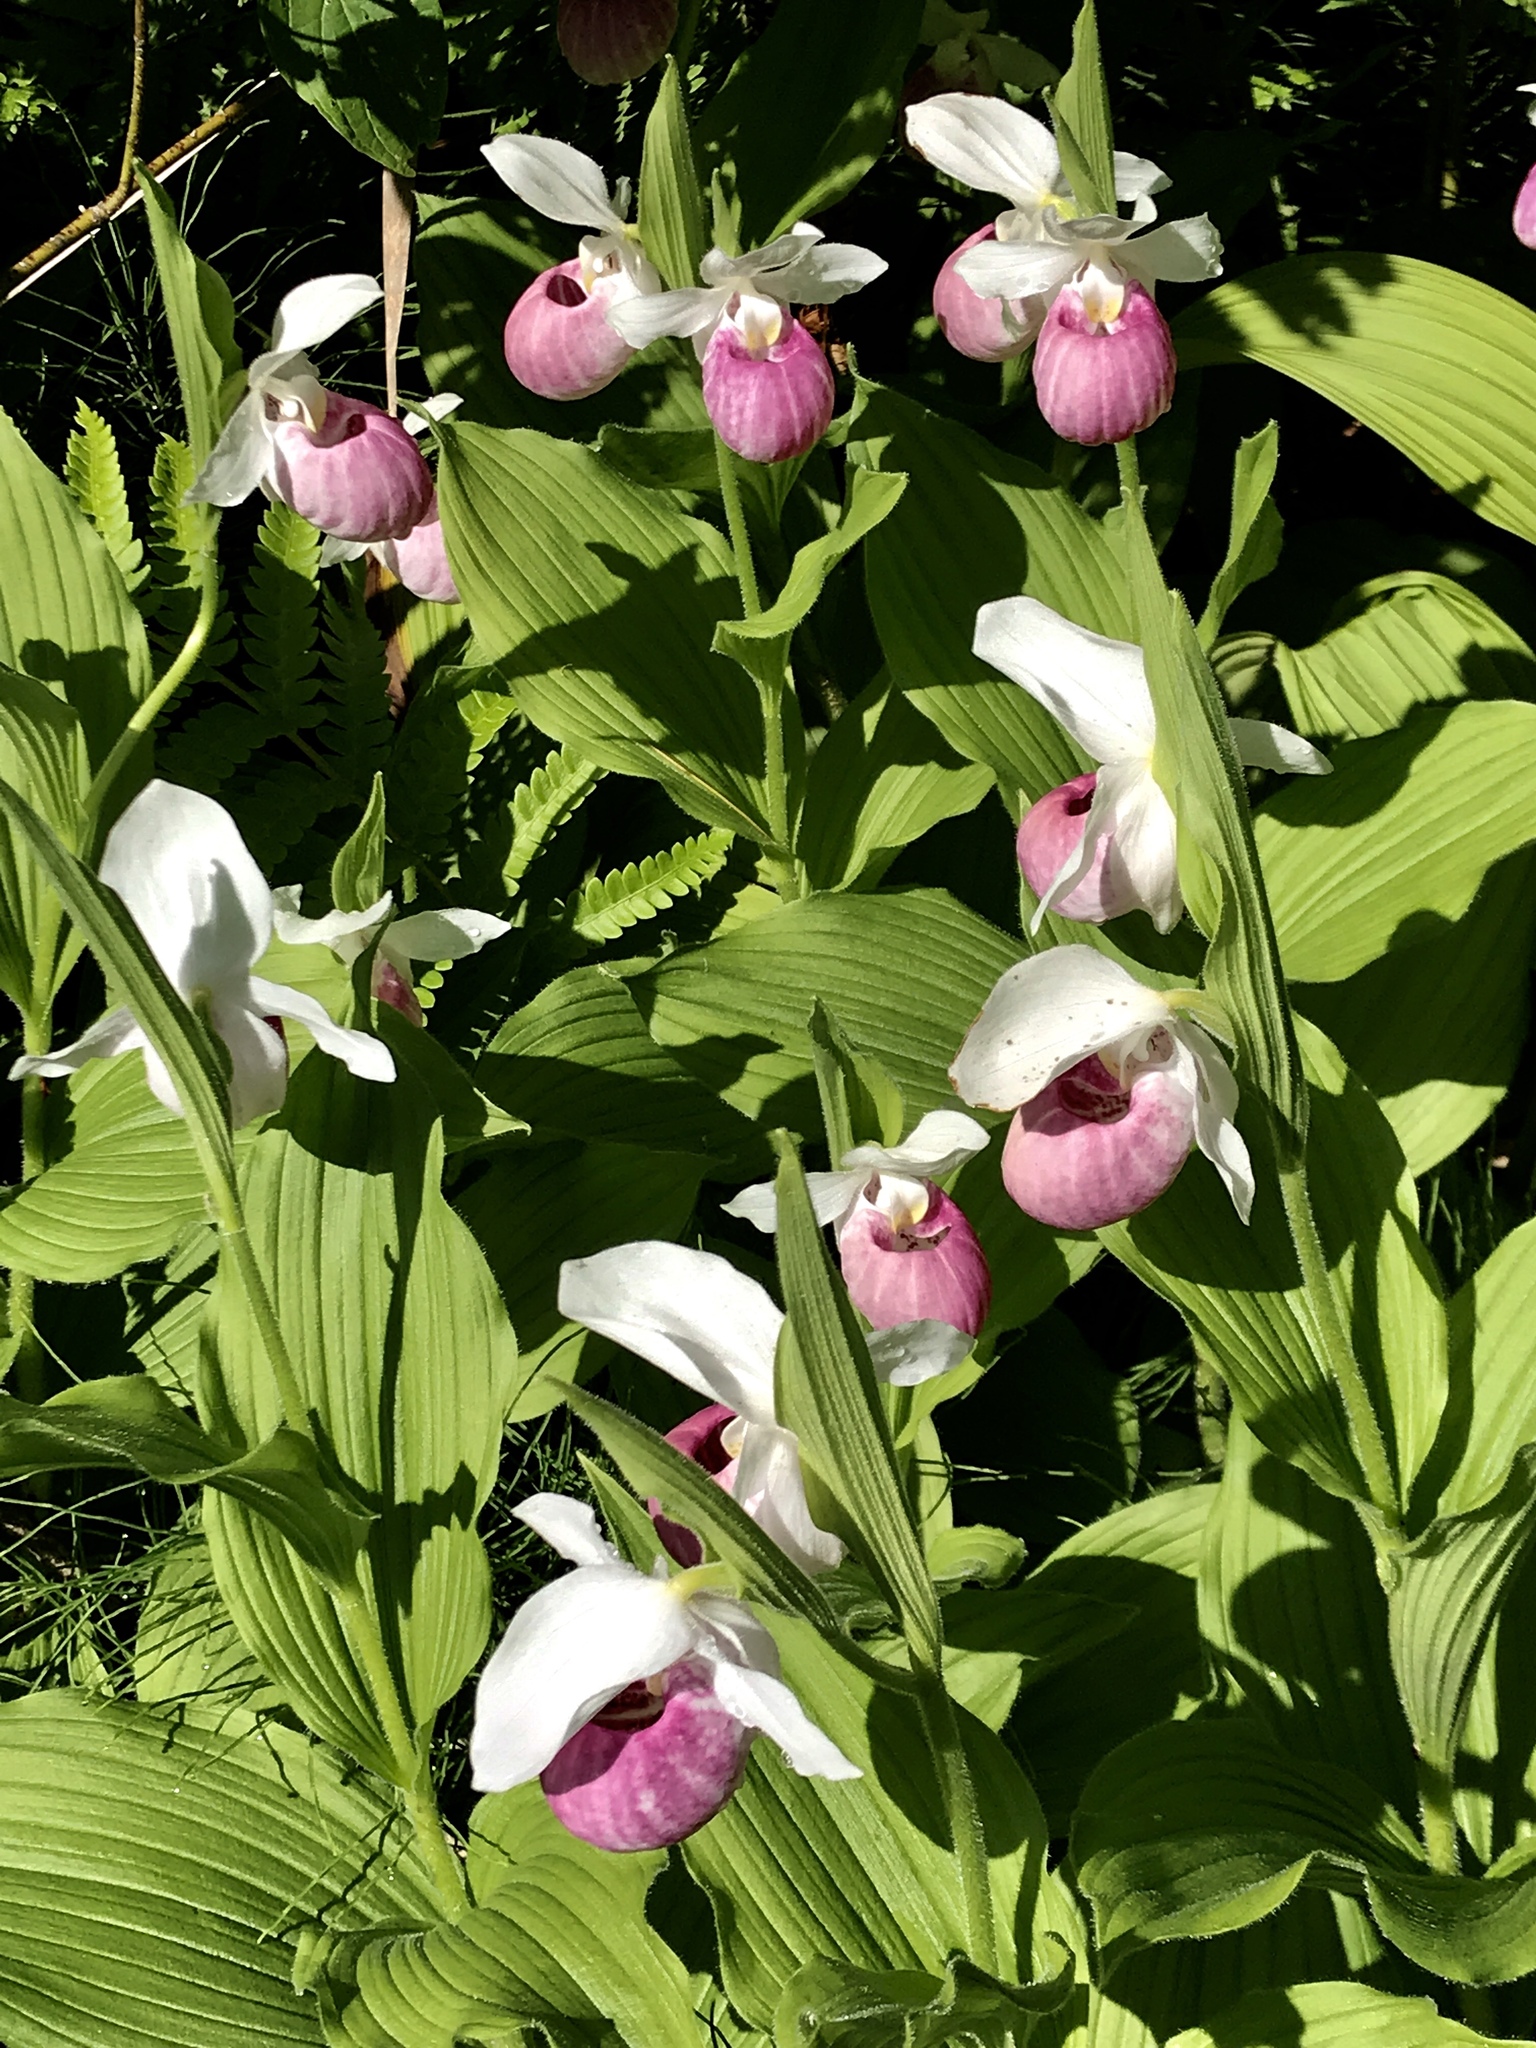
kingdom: Plantae
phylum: Tracheophyta
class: Liliopsida
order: Asparagales
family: Orchidaceae
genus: Cypripedium
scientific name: Cypripedium reginae
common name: Queen lady's-slipper
